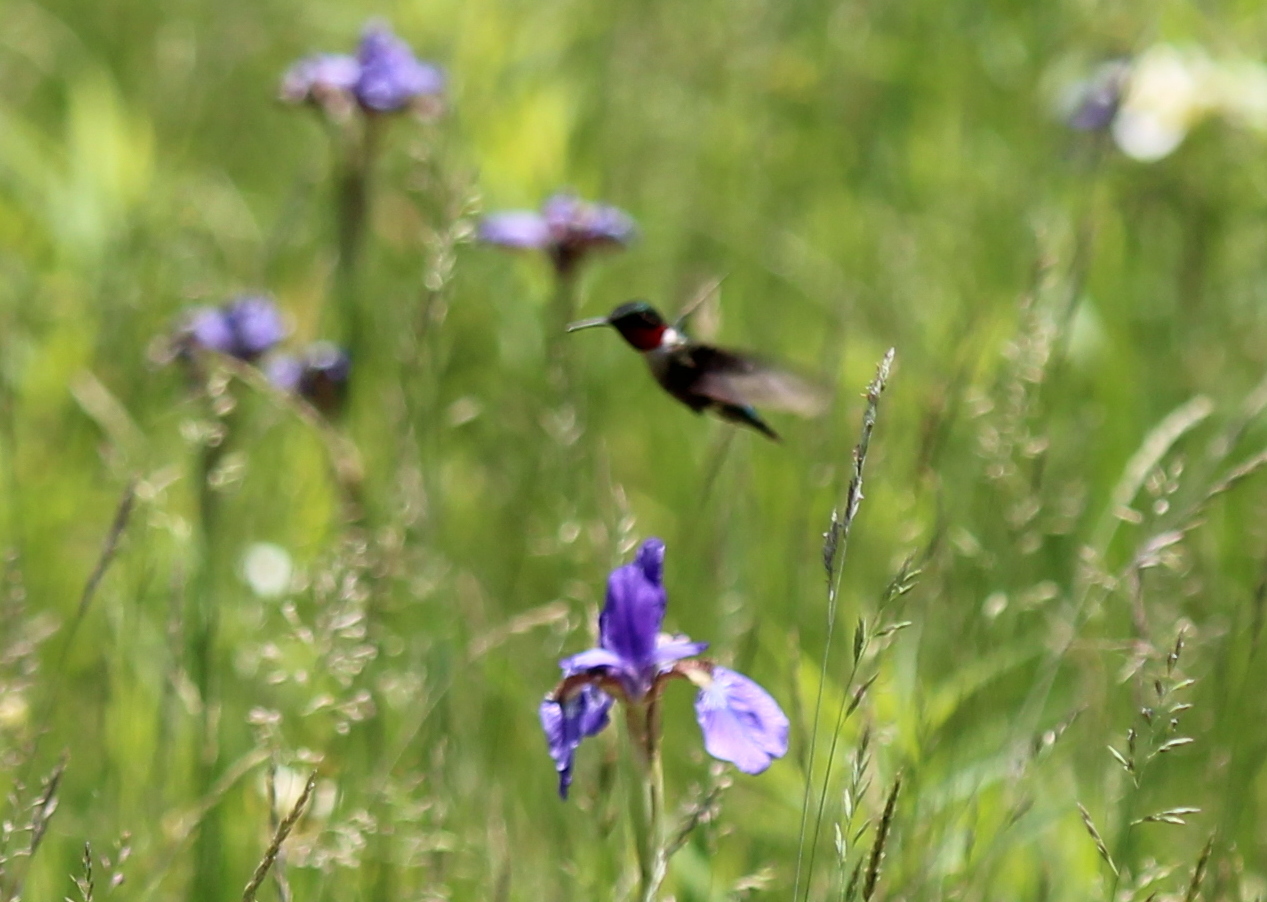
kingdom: Animalia
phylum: Chordata
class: Aves
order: Apodiformes
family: Trochilidae
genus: Archilochus
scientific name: Archilochus colubris
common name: Ruby-throated hummingbird
